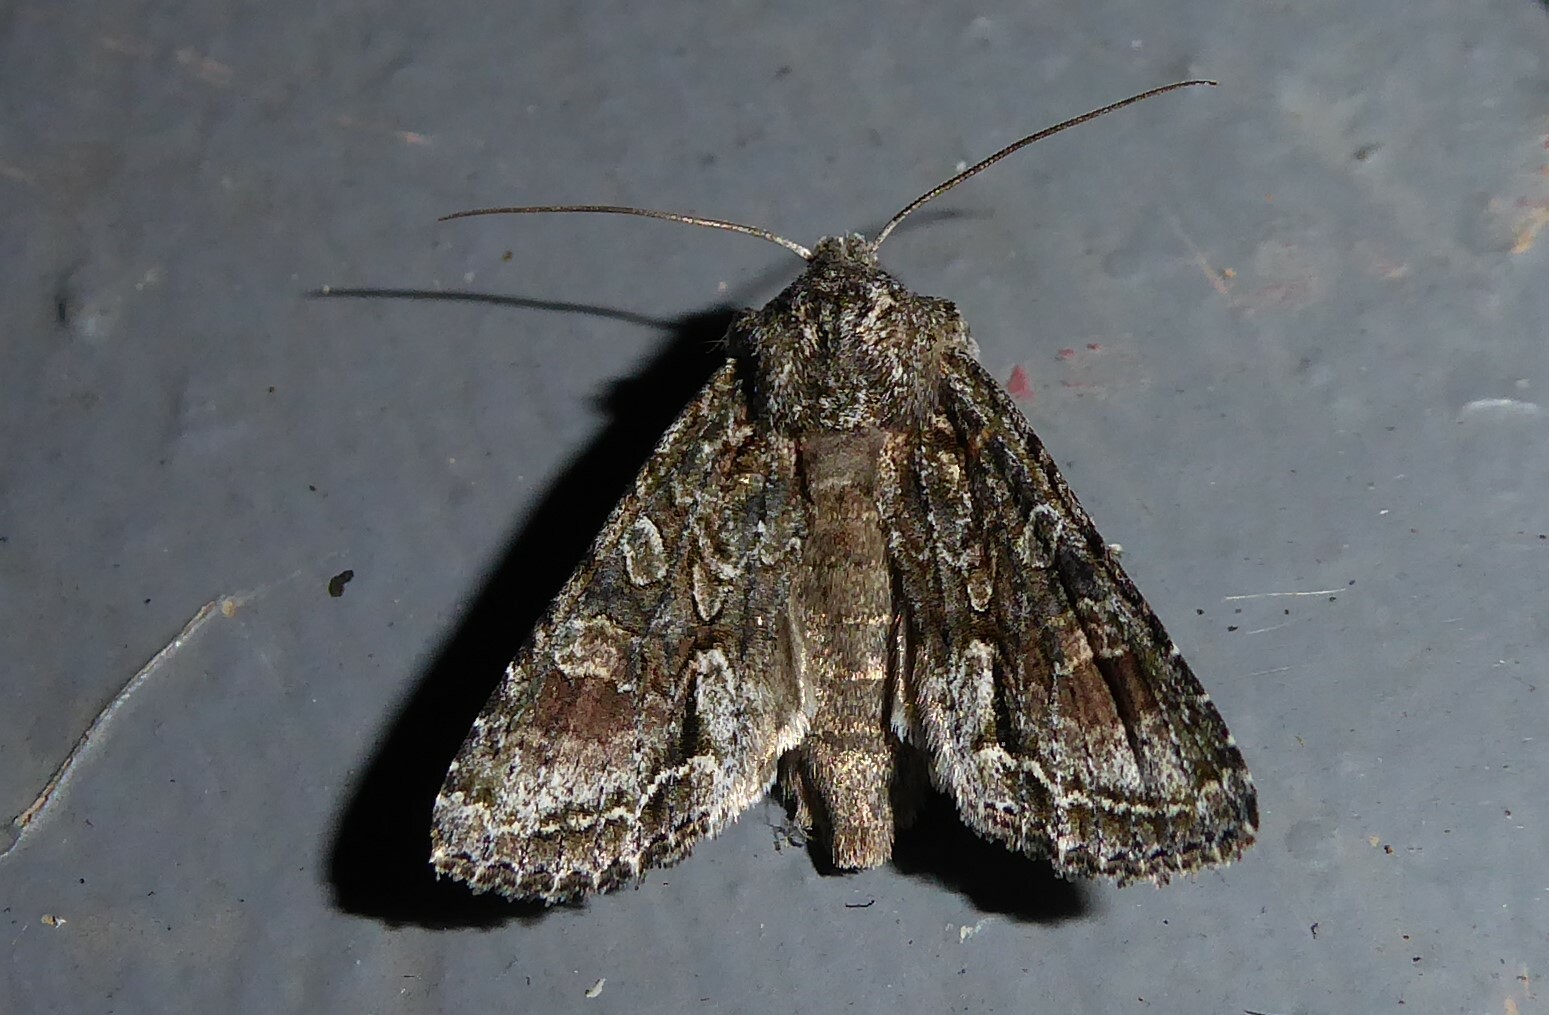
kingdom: Animalia
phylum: Arthropoda
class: Insecta
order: Lepidoptera
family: Noctuidae
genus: Ichneutica
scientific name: Ichneutica mutans
